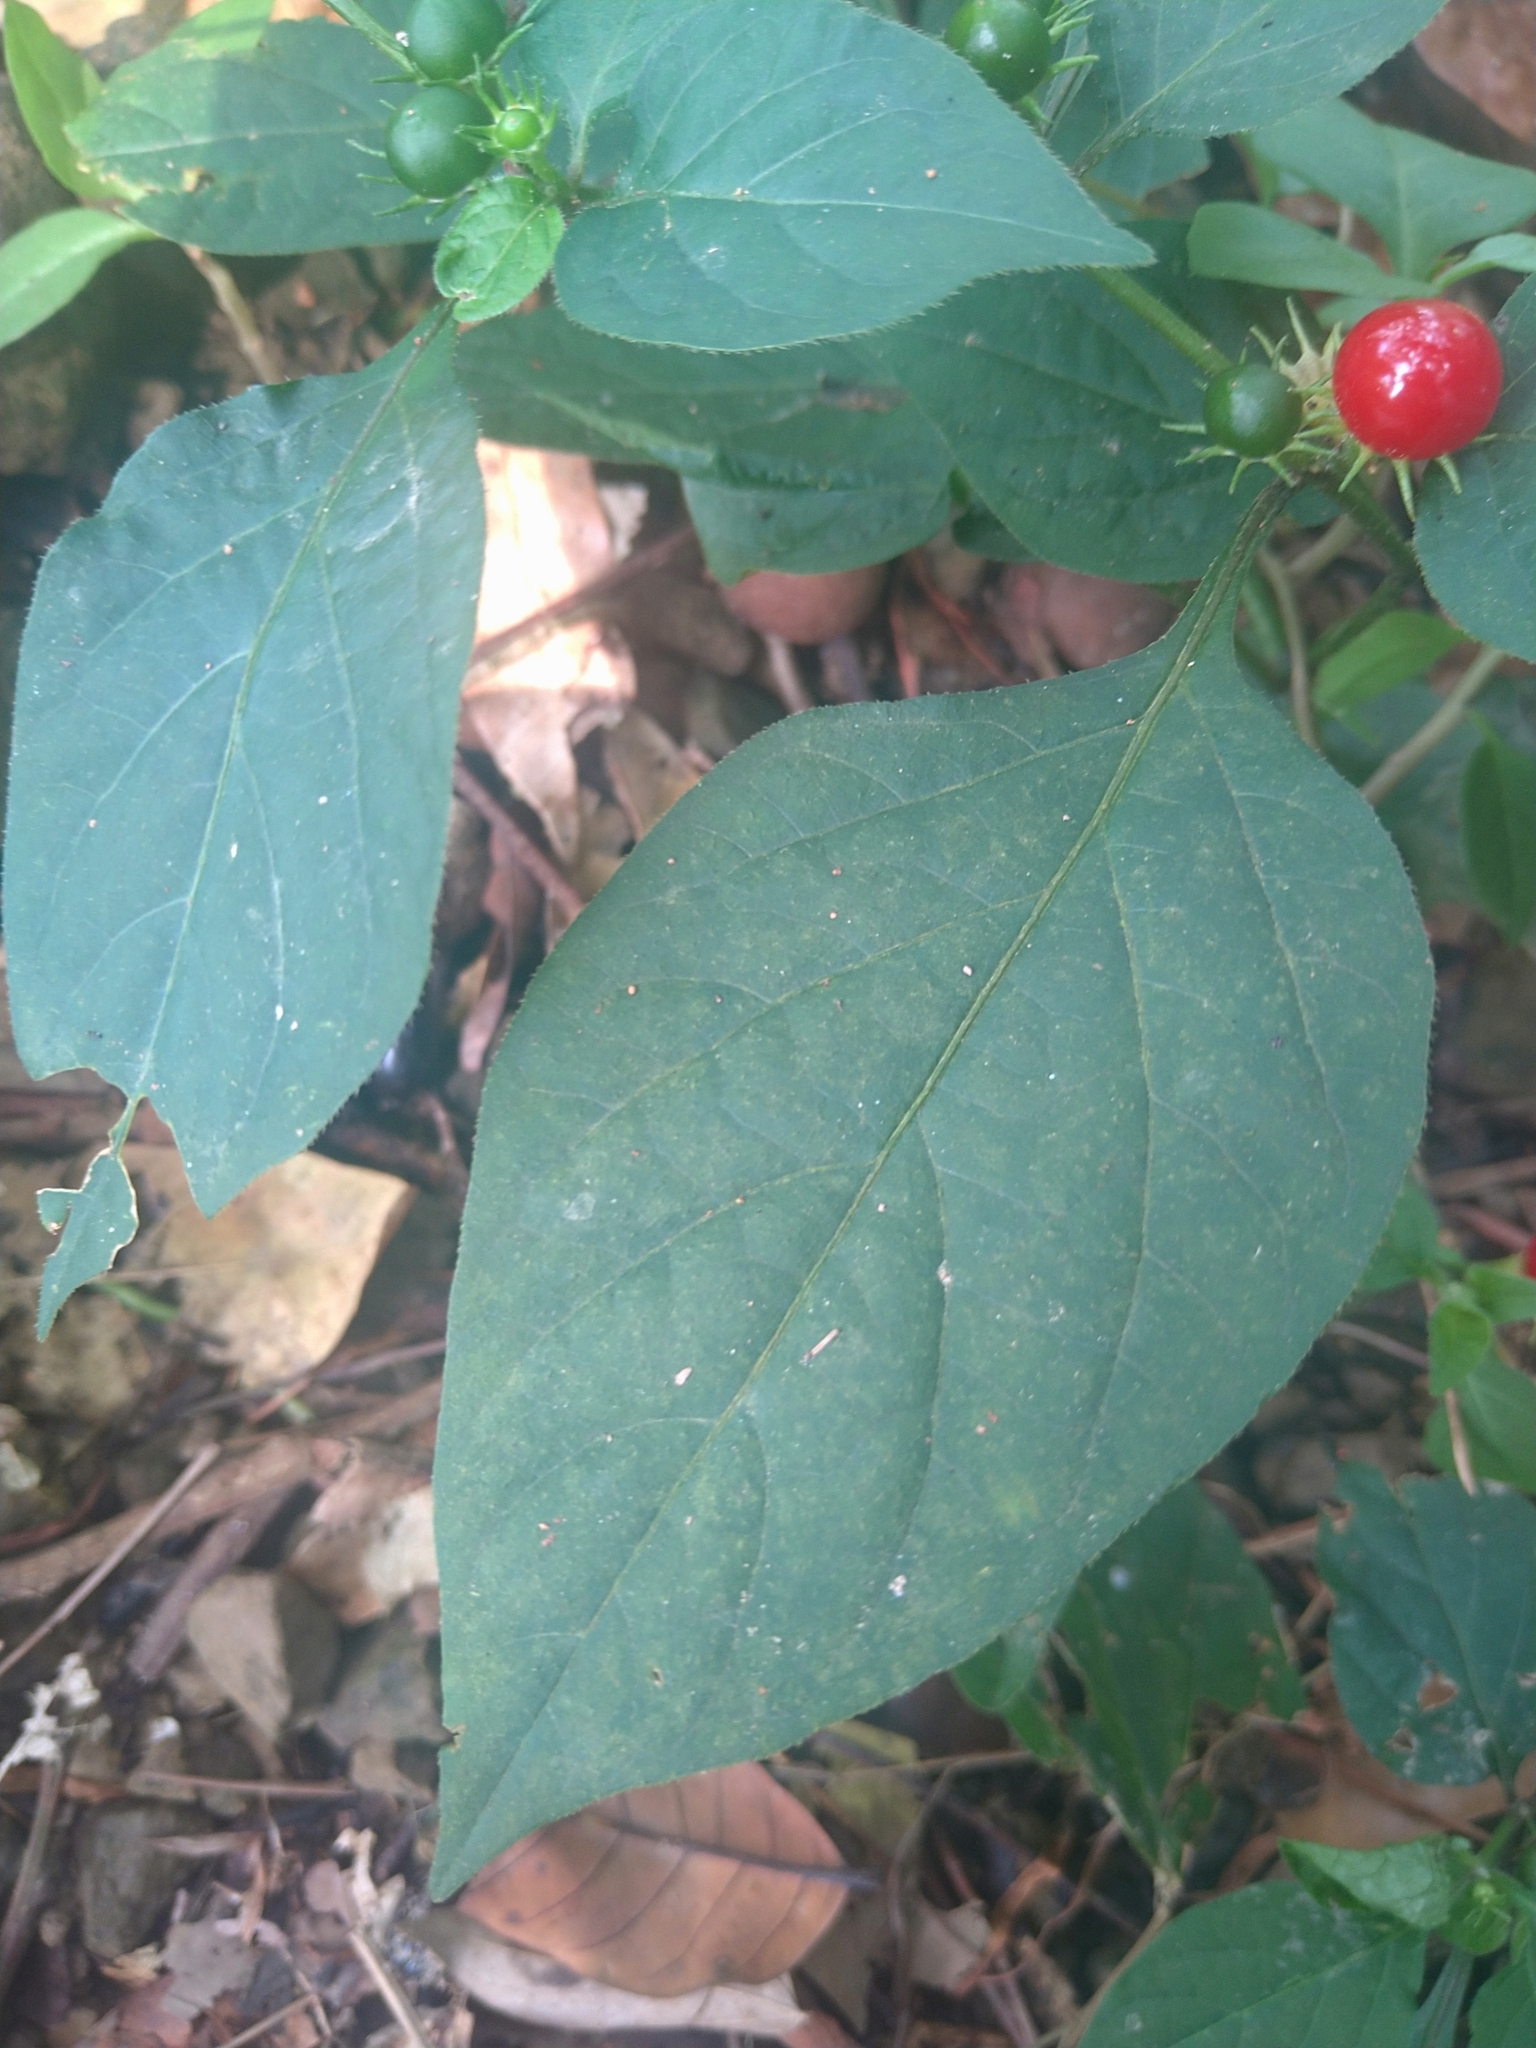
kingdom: Plantae
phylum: Tracheophyta
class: Magnoliopsida
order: Solanales
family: Solanaceae
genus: Lycianthes
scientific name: Lycianthes biflora
